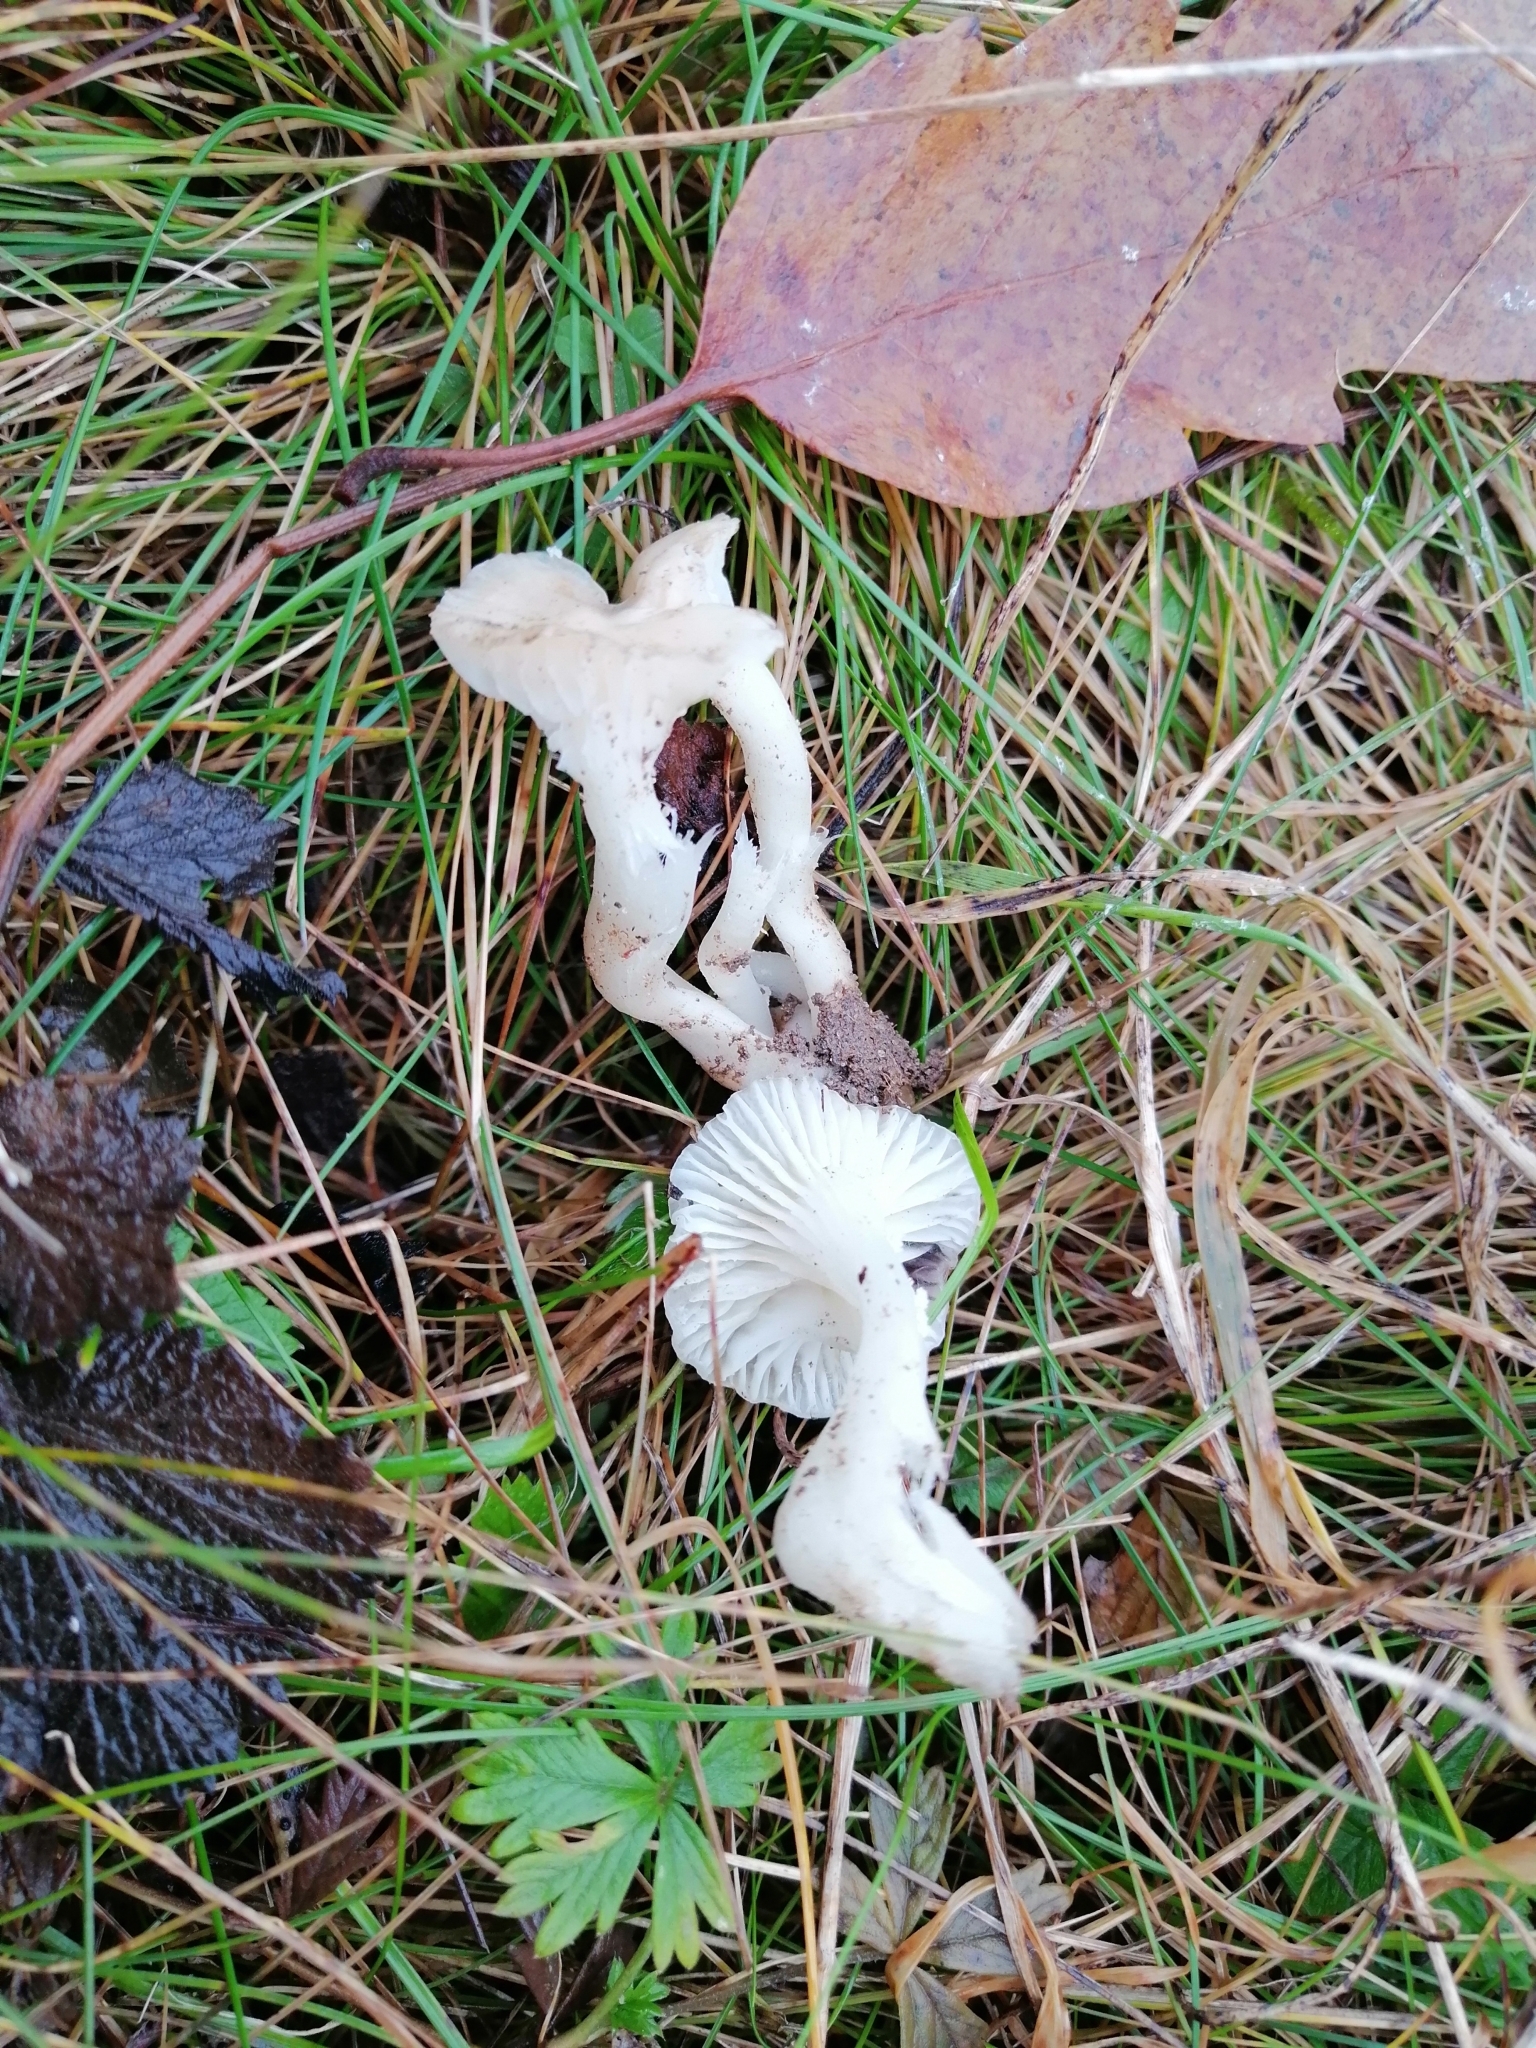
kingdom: Fungi
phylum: Basidiomycota
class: Agaricomycetes
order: Agaricales
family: Hygrophoraceae
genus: Cuphophyllus
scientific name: Cuphophyllus virgineus
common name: Snowy waxcap
